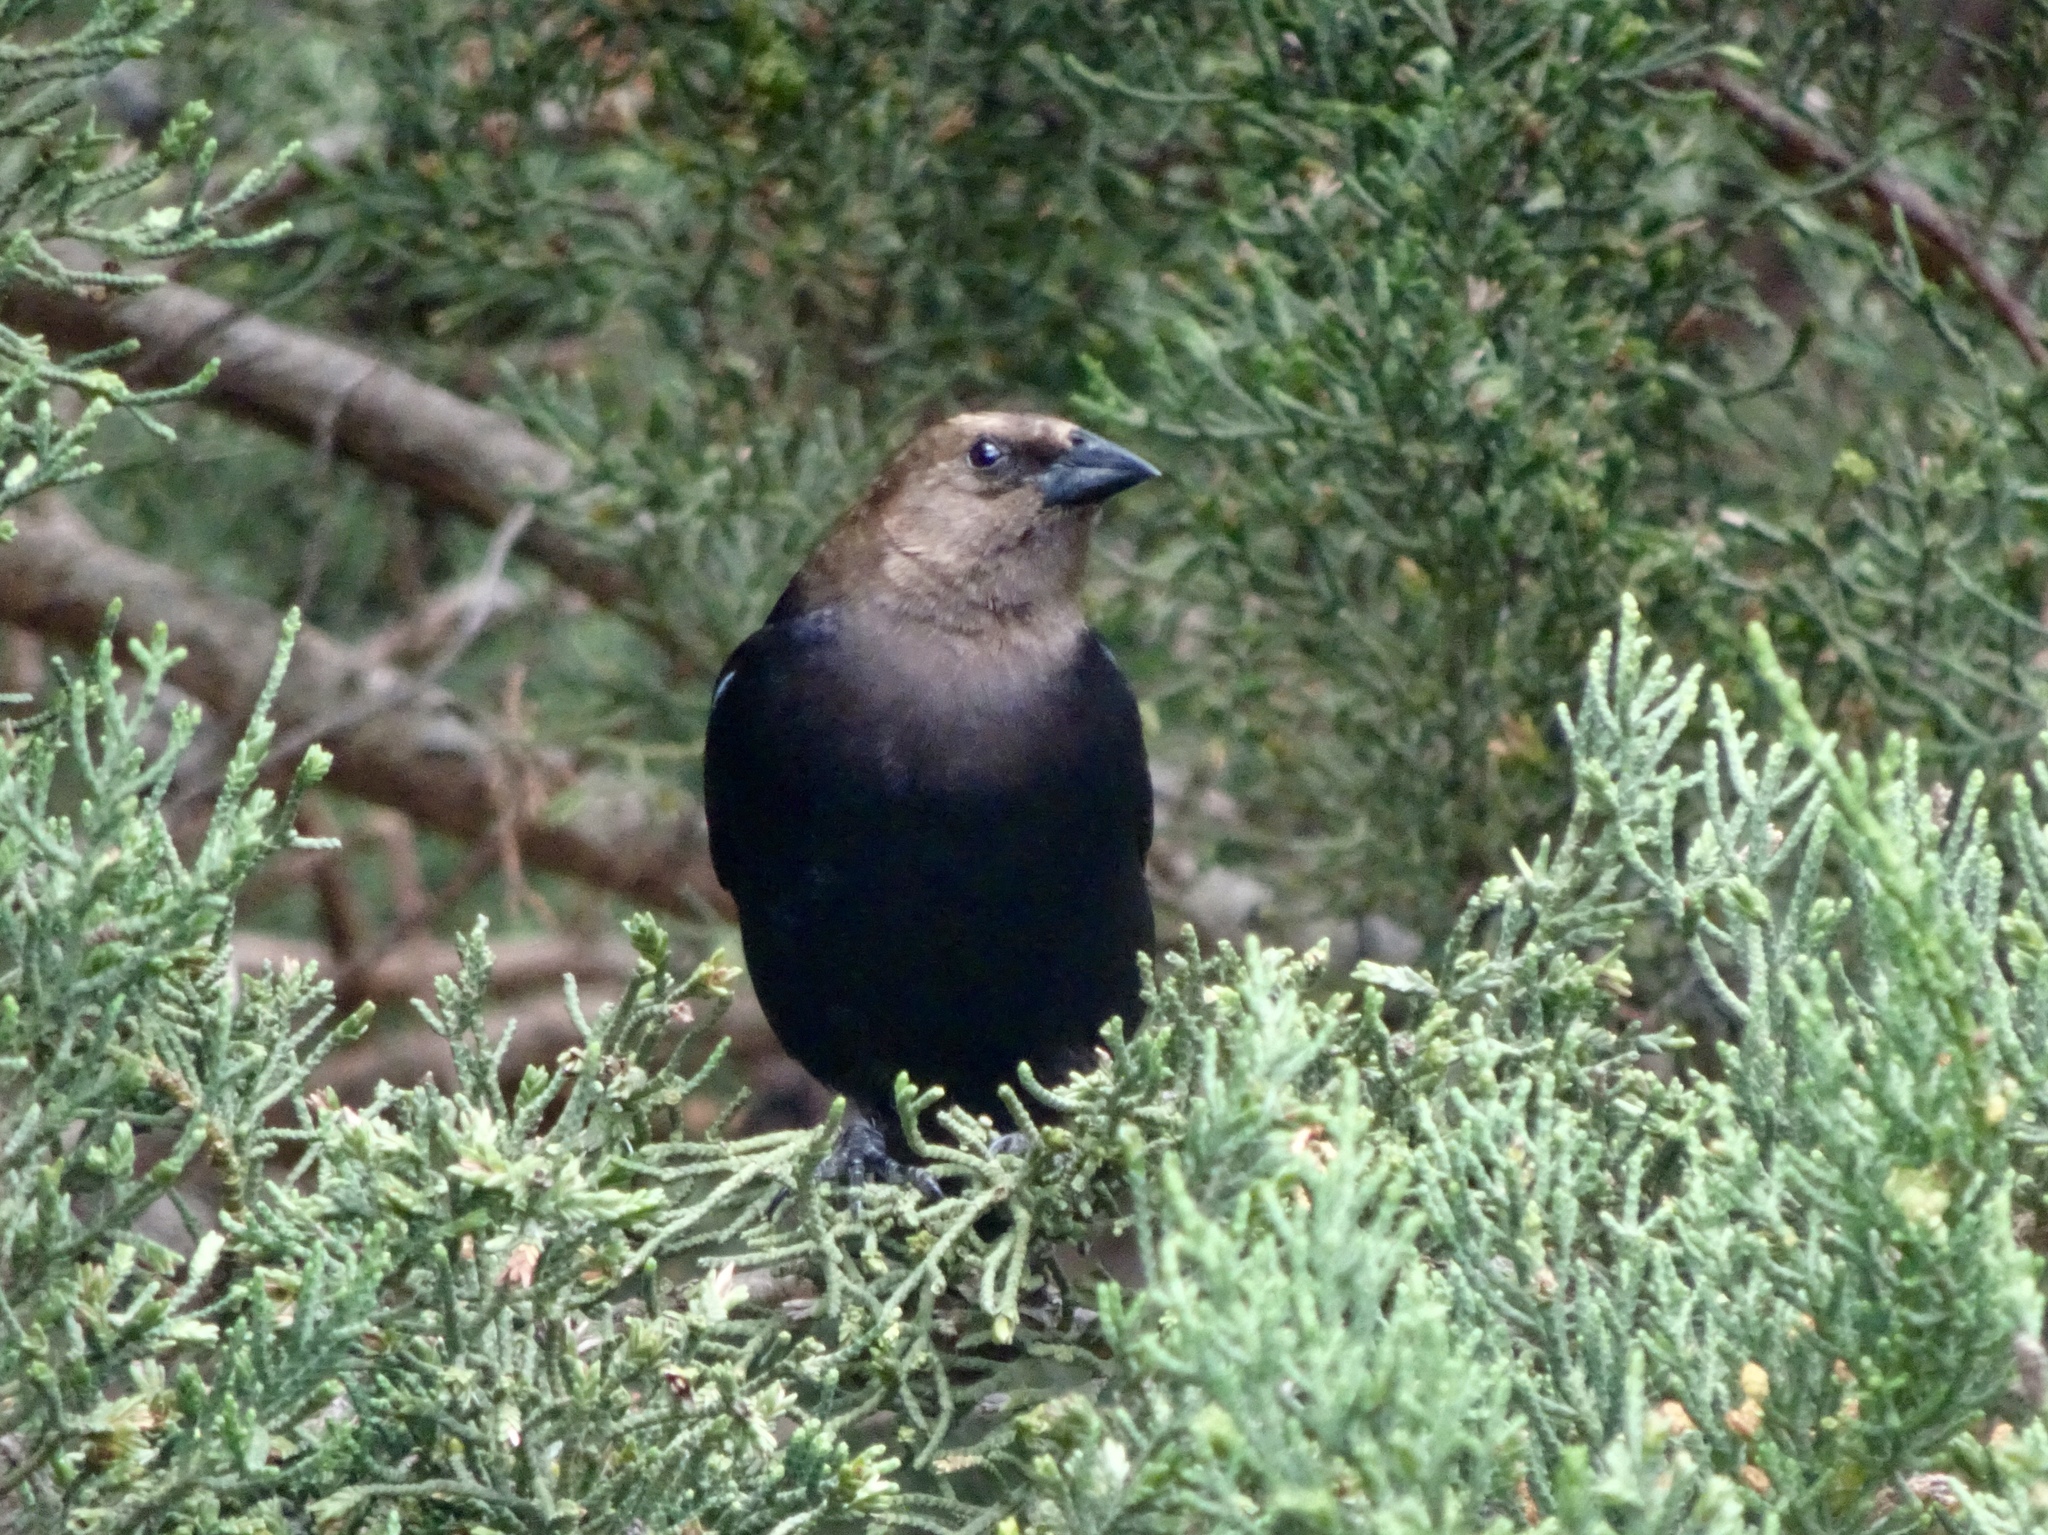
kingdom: Animalia
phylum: Chordata
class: Aves
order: Passeriformes
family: Icteridae
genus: Molothrus
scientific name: Molothrus ater
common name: Brown-headed cowbird
